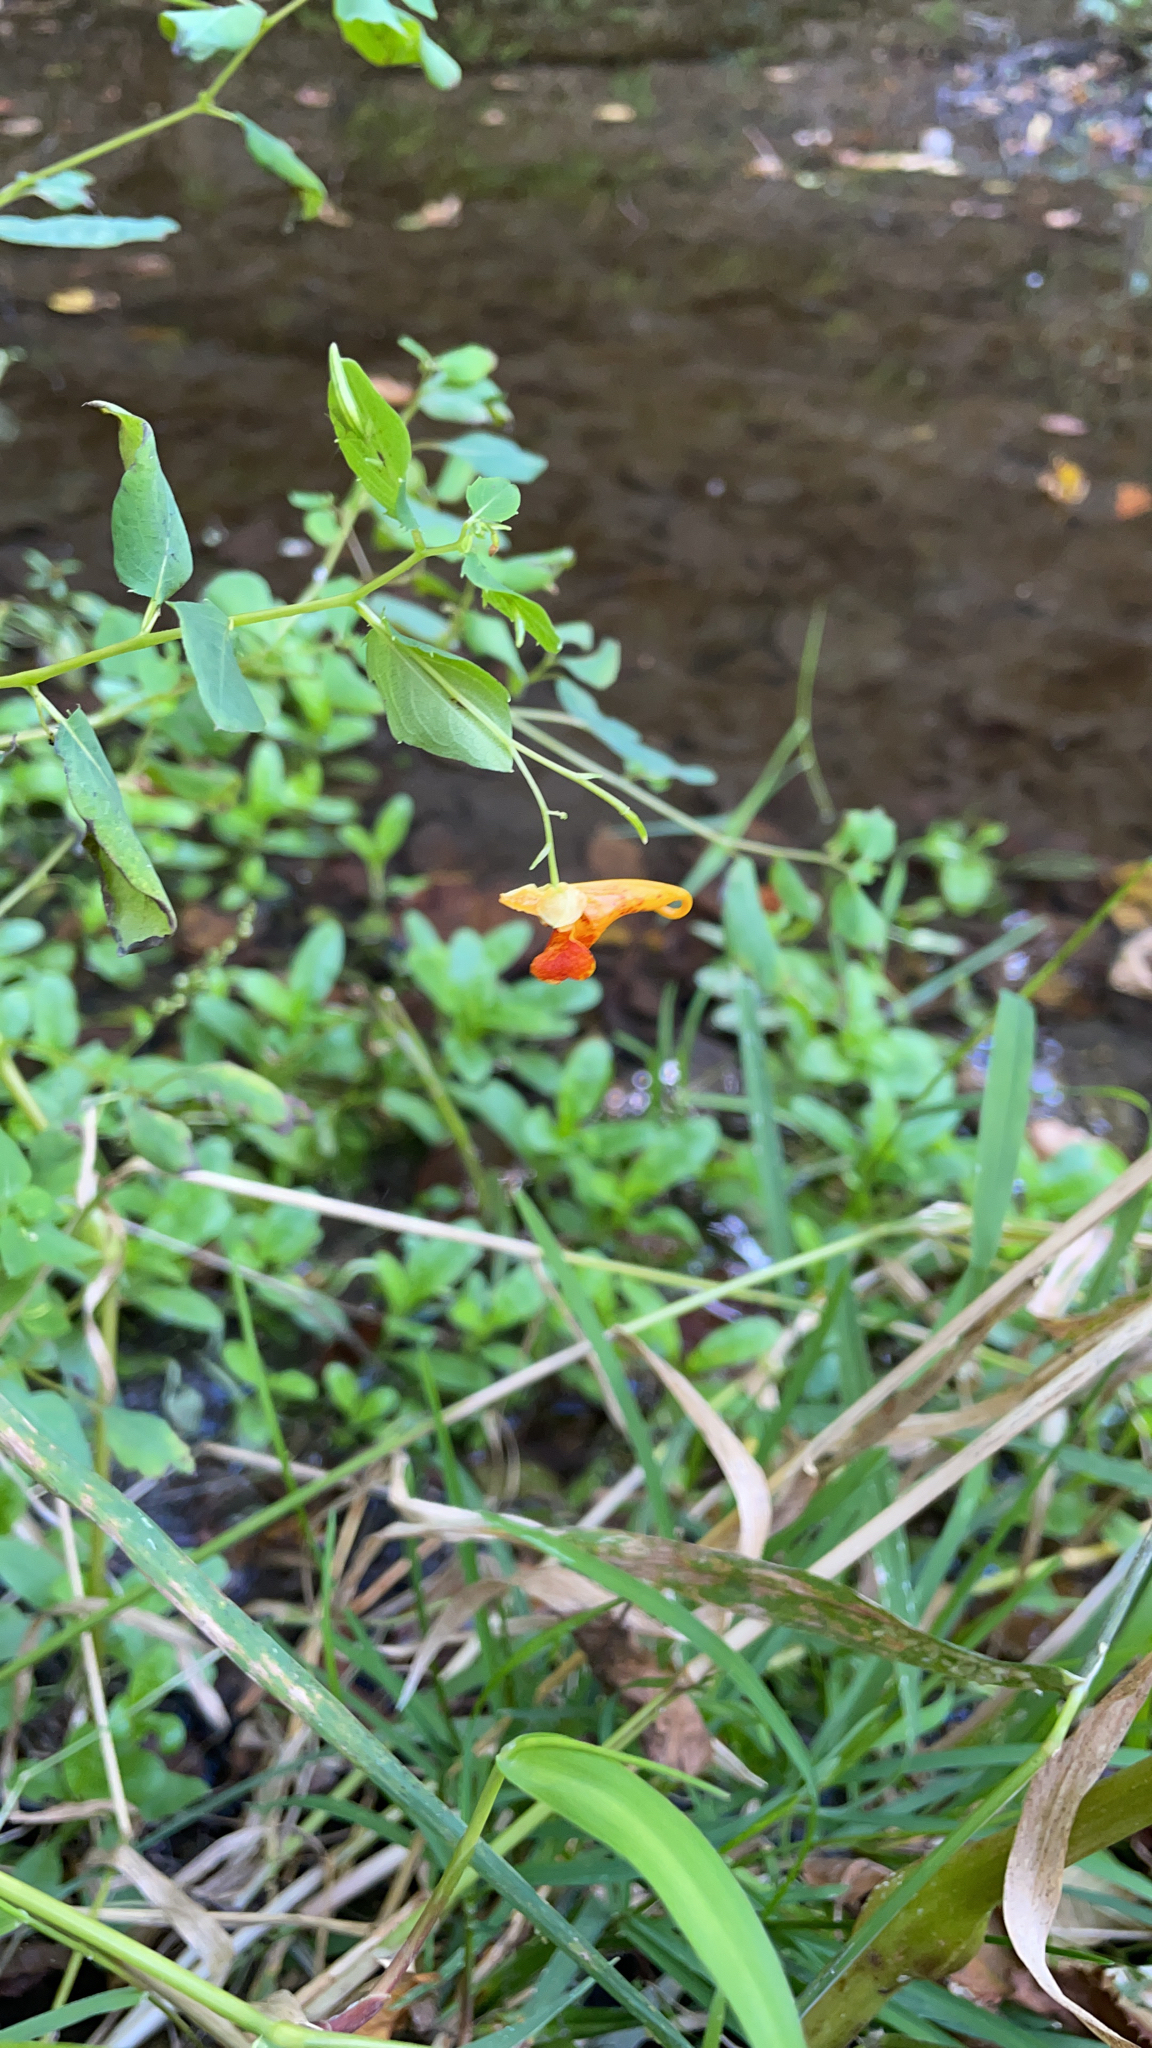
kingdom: Plantae
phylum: Tracheophyta
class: Magnoliopsida
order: Ericales
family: Balsaminaceae
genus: Impatiens
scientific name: Impatiens capensis
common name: Orange balsam
